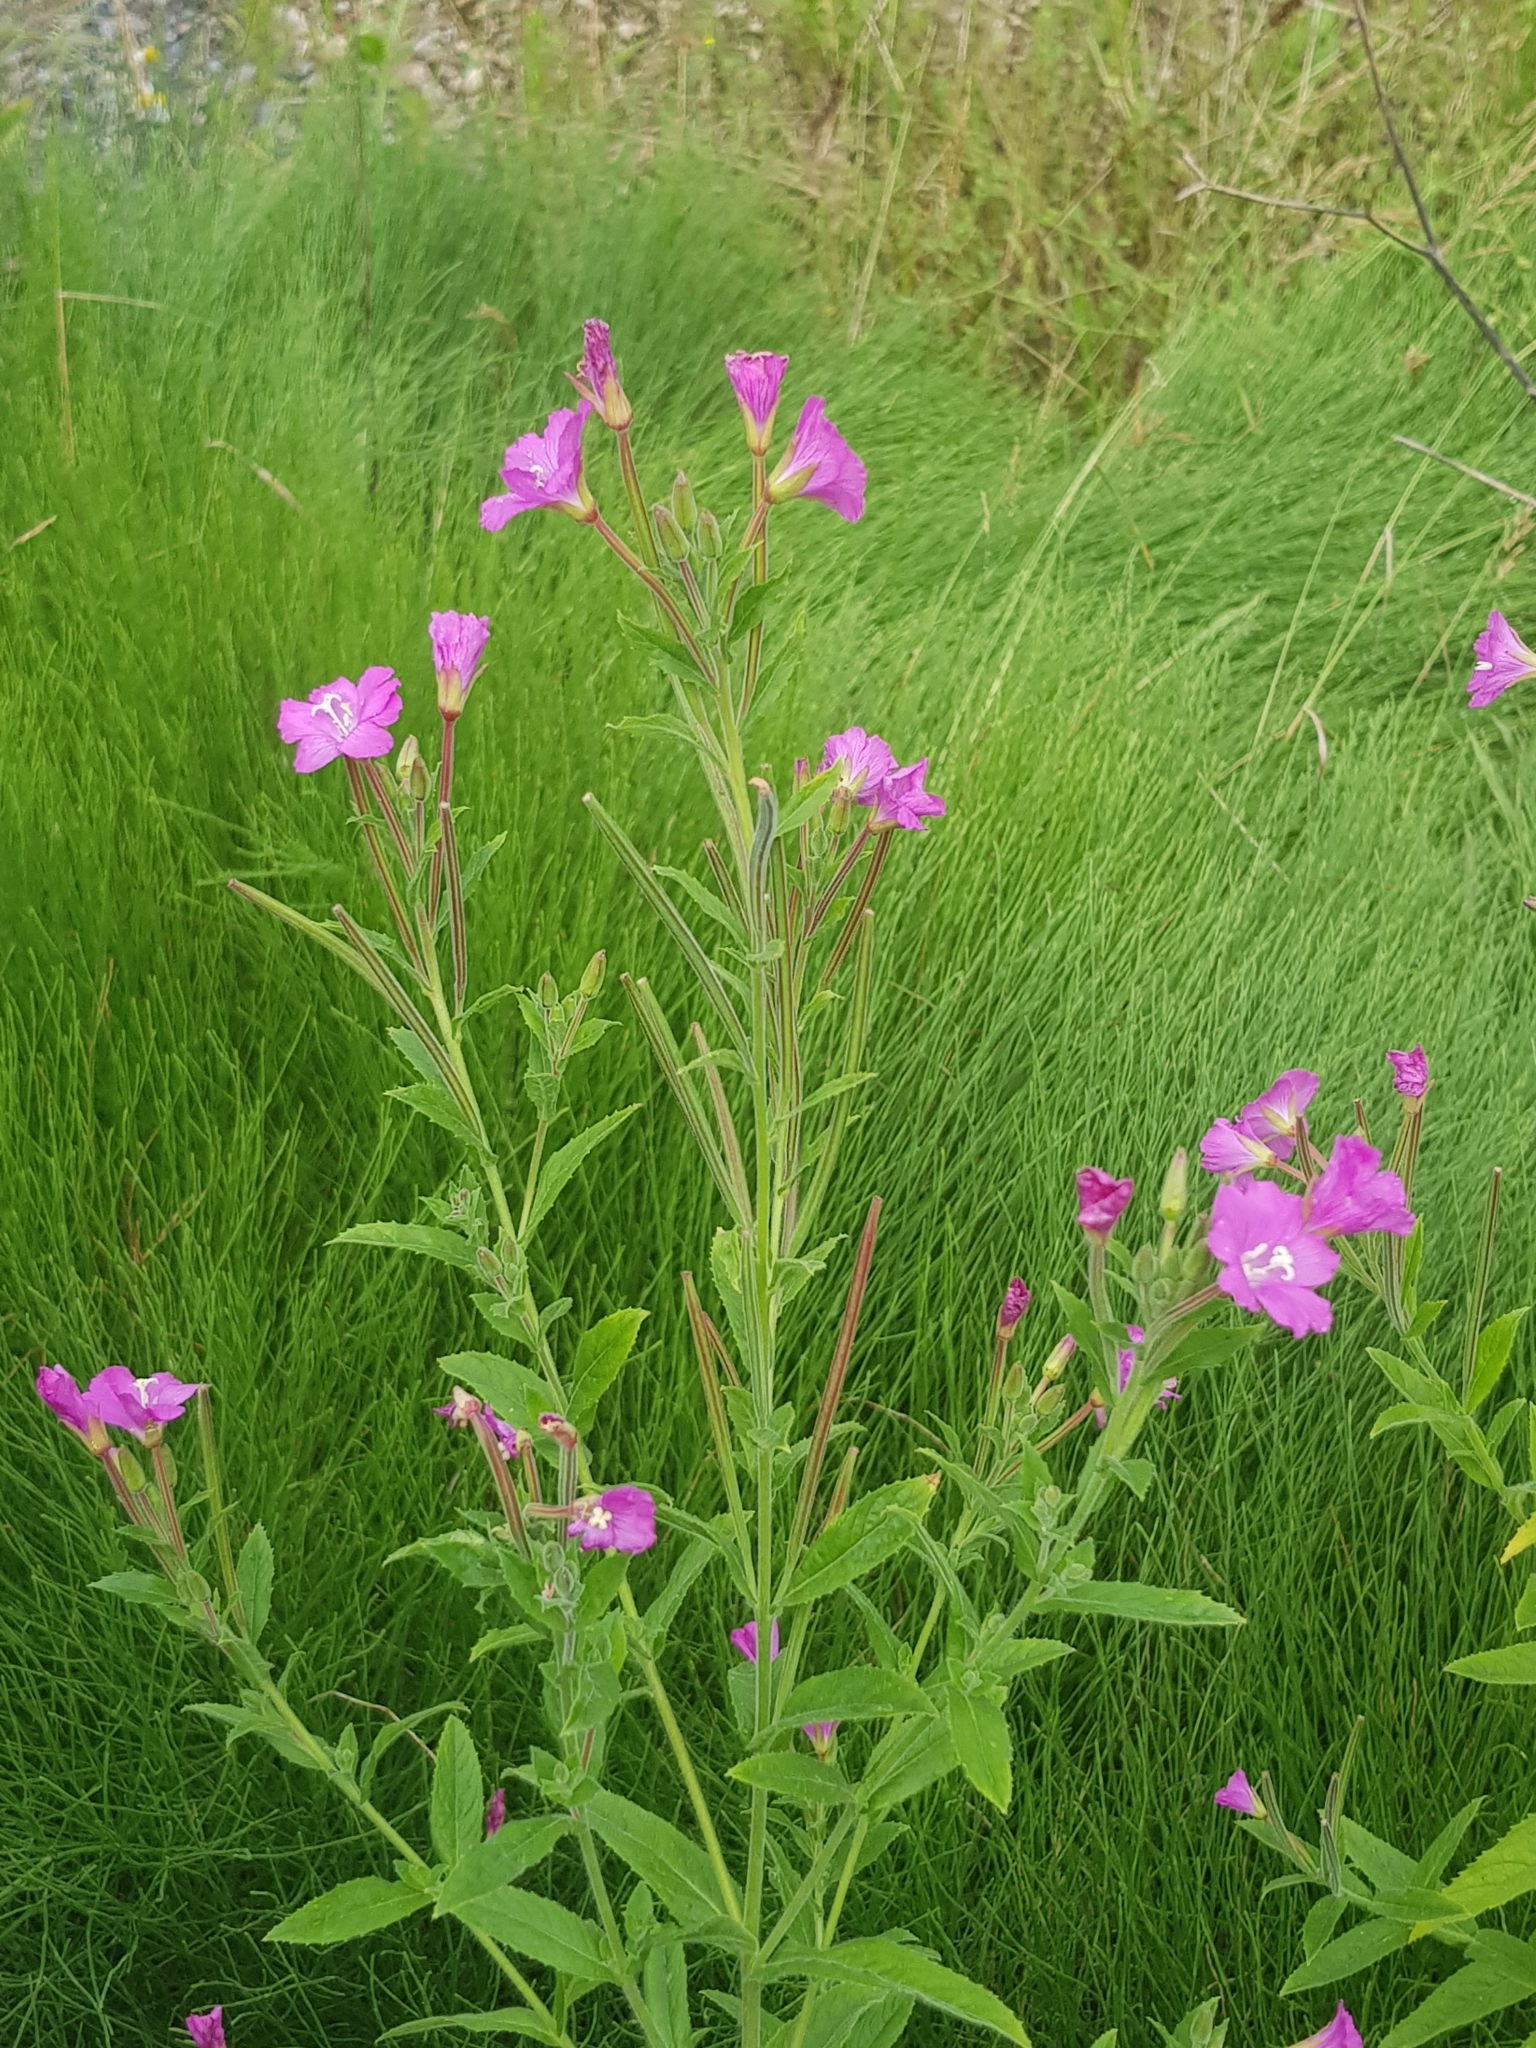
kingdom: Plantae
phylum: Tracheophyta
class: Magnoliopsida
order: Myrtales
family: Onagraceae
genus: Epilobium
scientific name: Epilobium hirsutum
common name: Great willowherb
